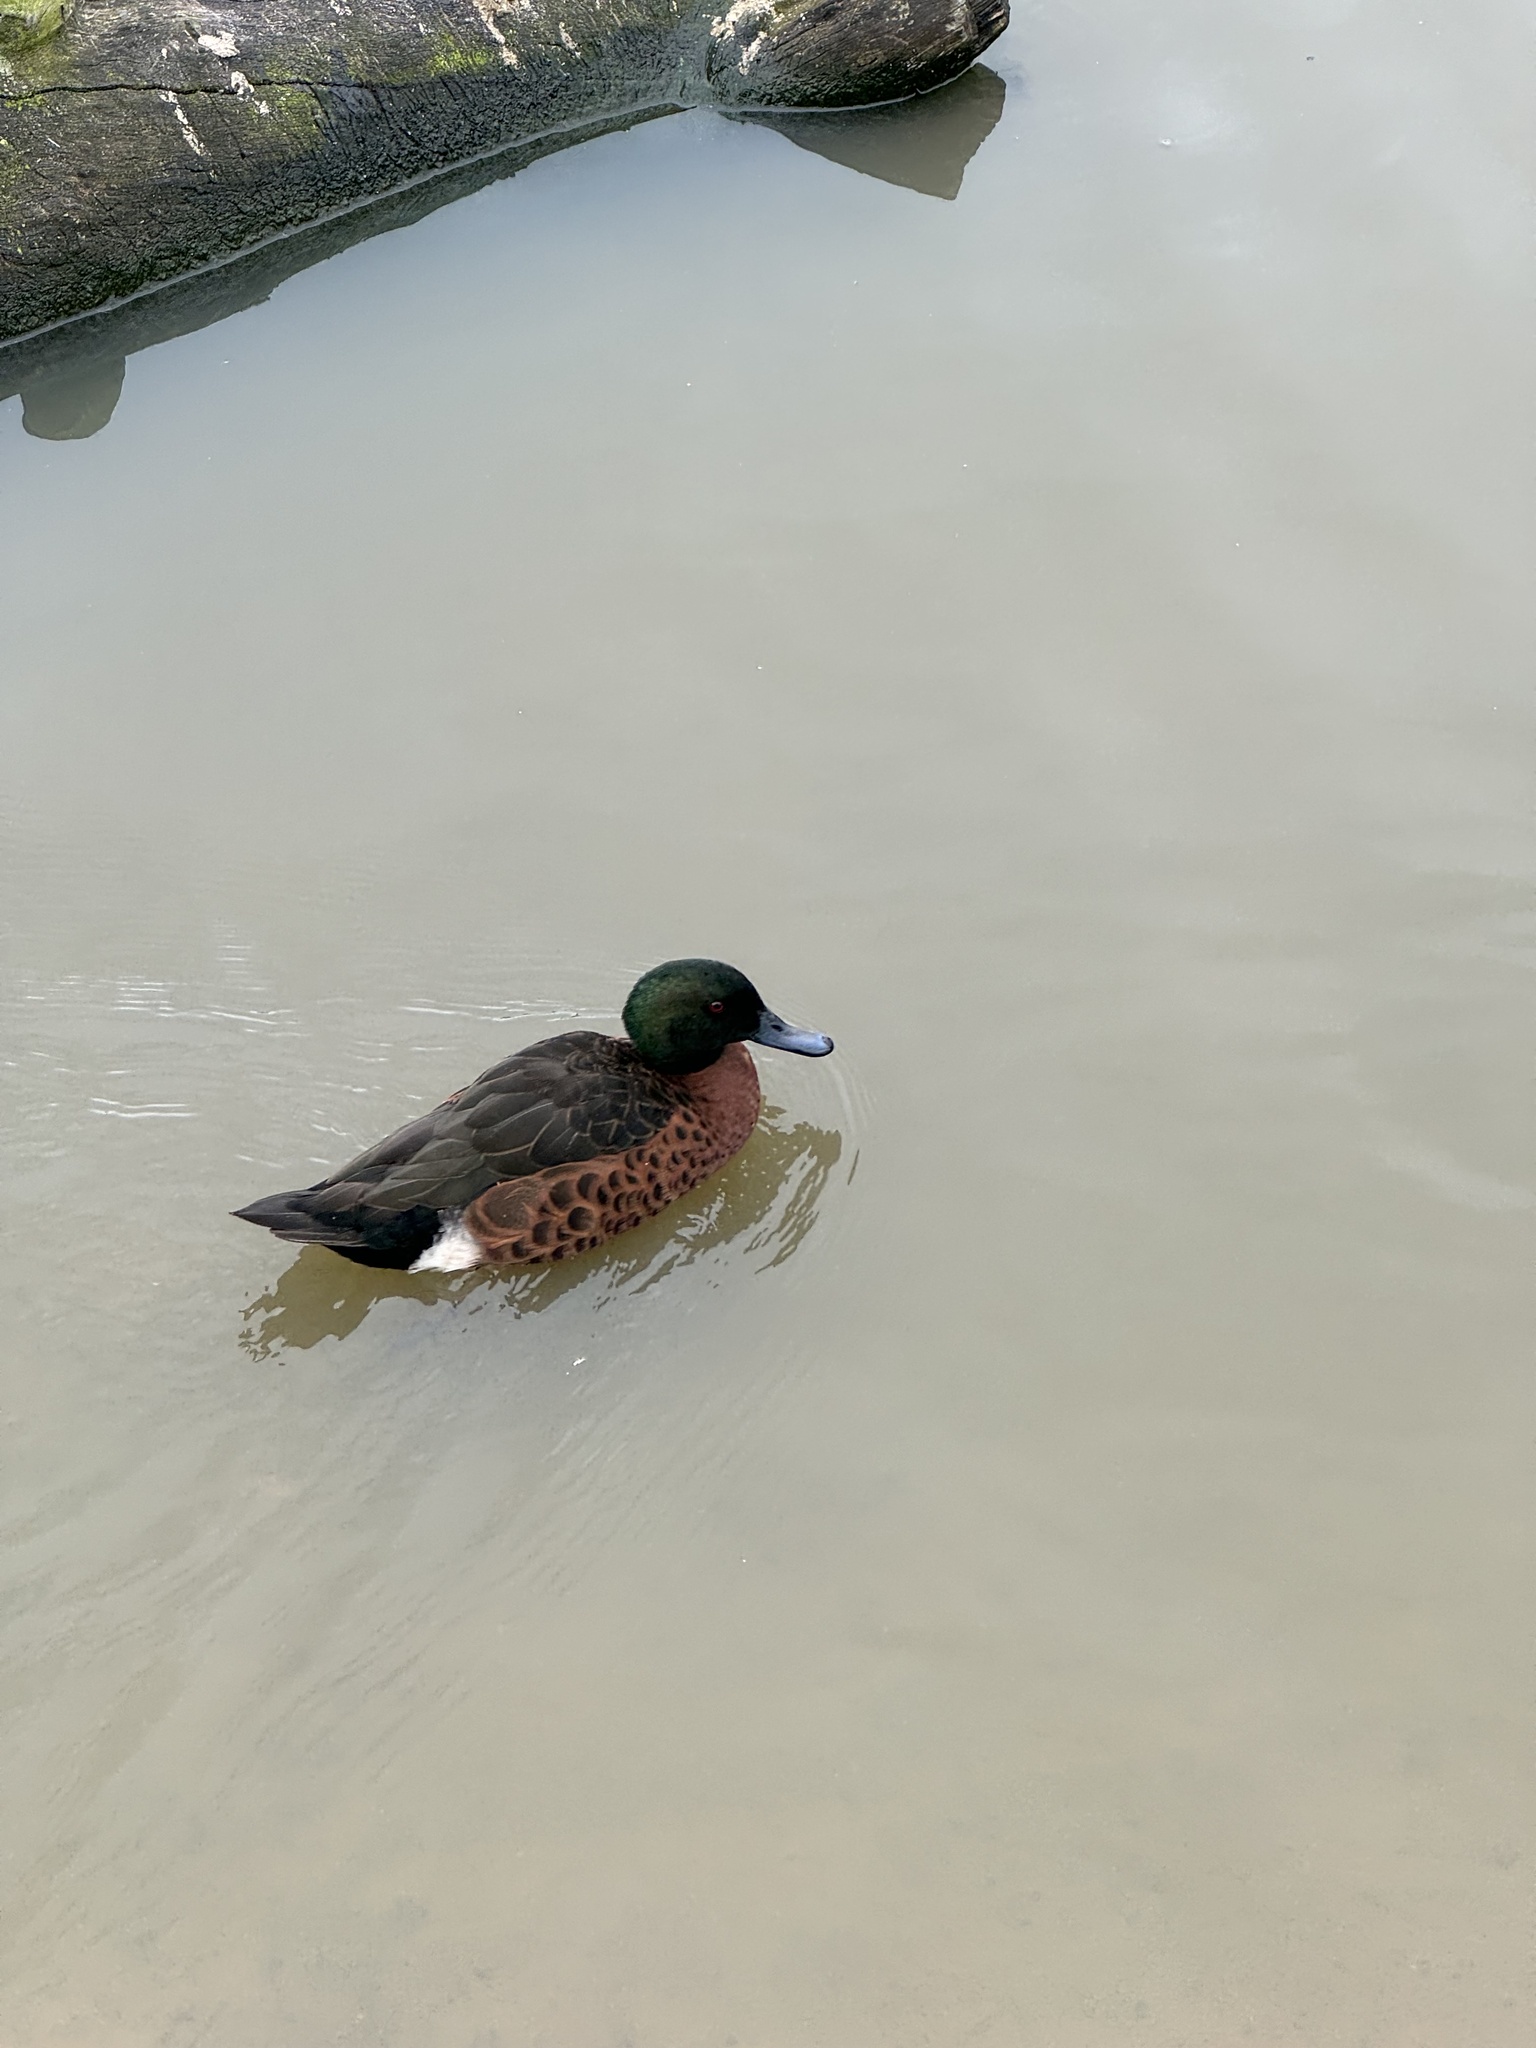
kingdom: Animalia
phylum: Chordata
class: Aves
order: Anseriformes
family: Anatidae
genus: Anas
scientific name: Anas castanea
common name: Chestnut teal
